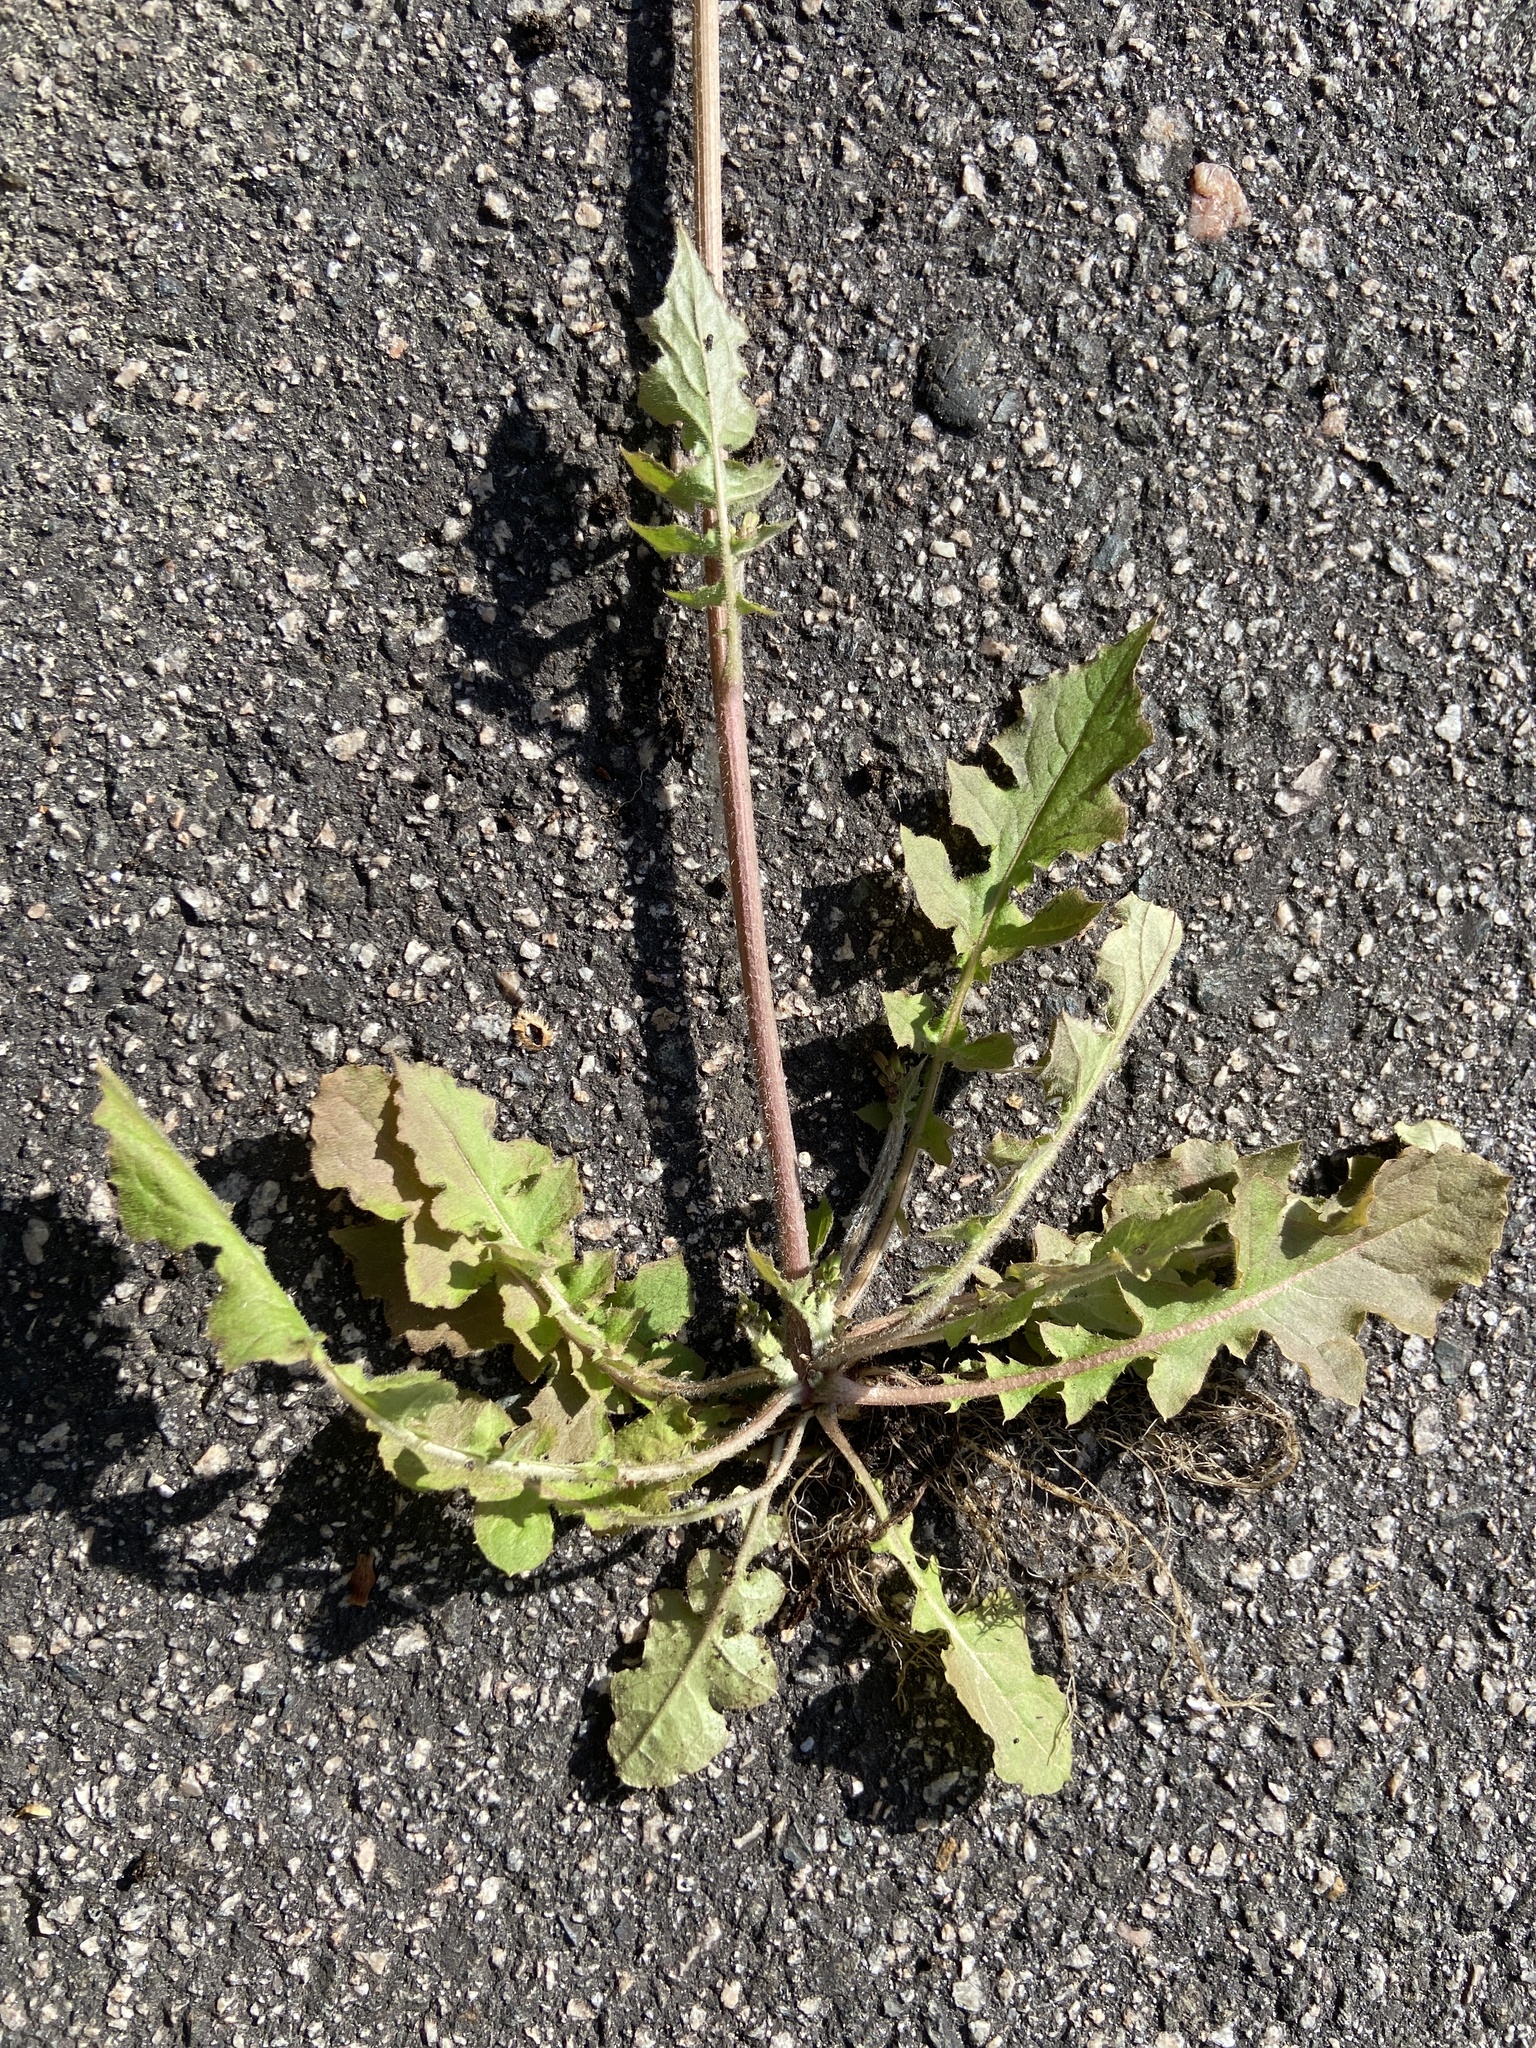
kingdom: Plantae
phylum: Tracheophyta
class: Magnoliopsida
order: Asterales
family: Asteraceae
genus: Youngia
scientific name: Youngia japonica
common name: Oriental false hawksbeard
